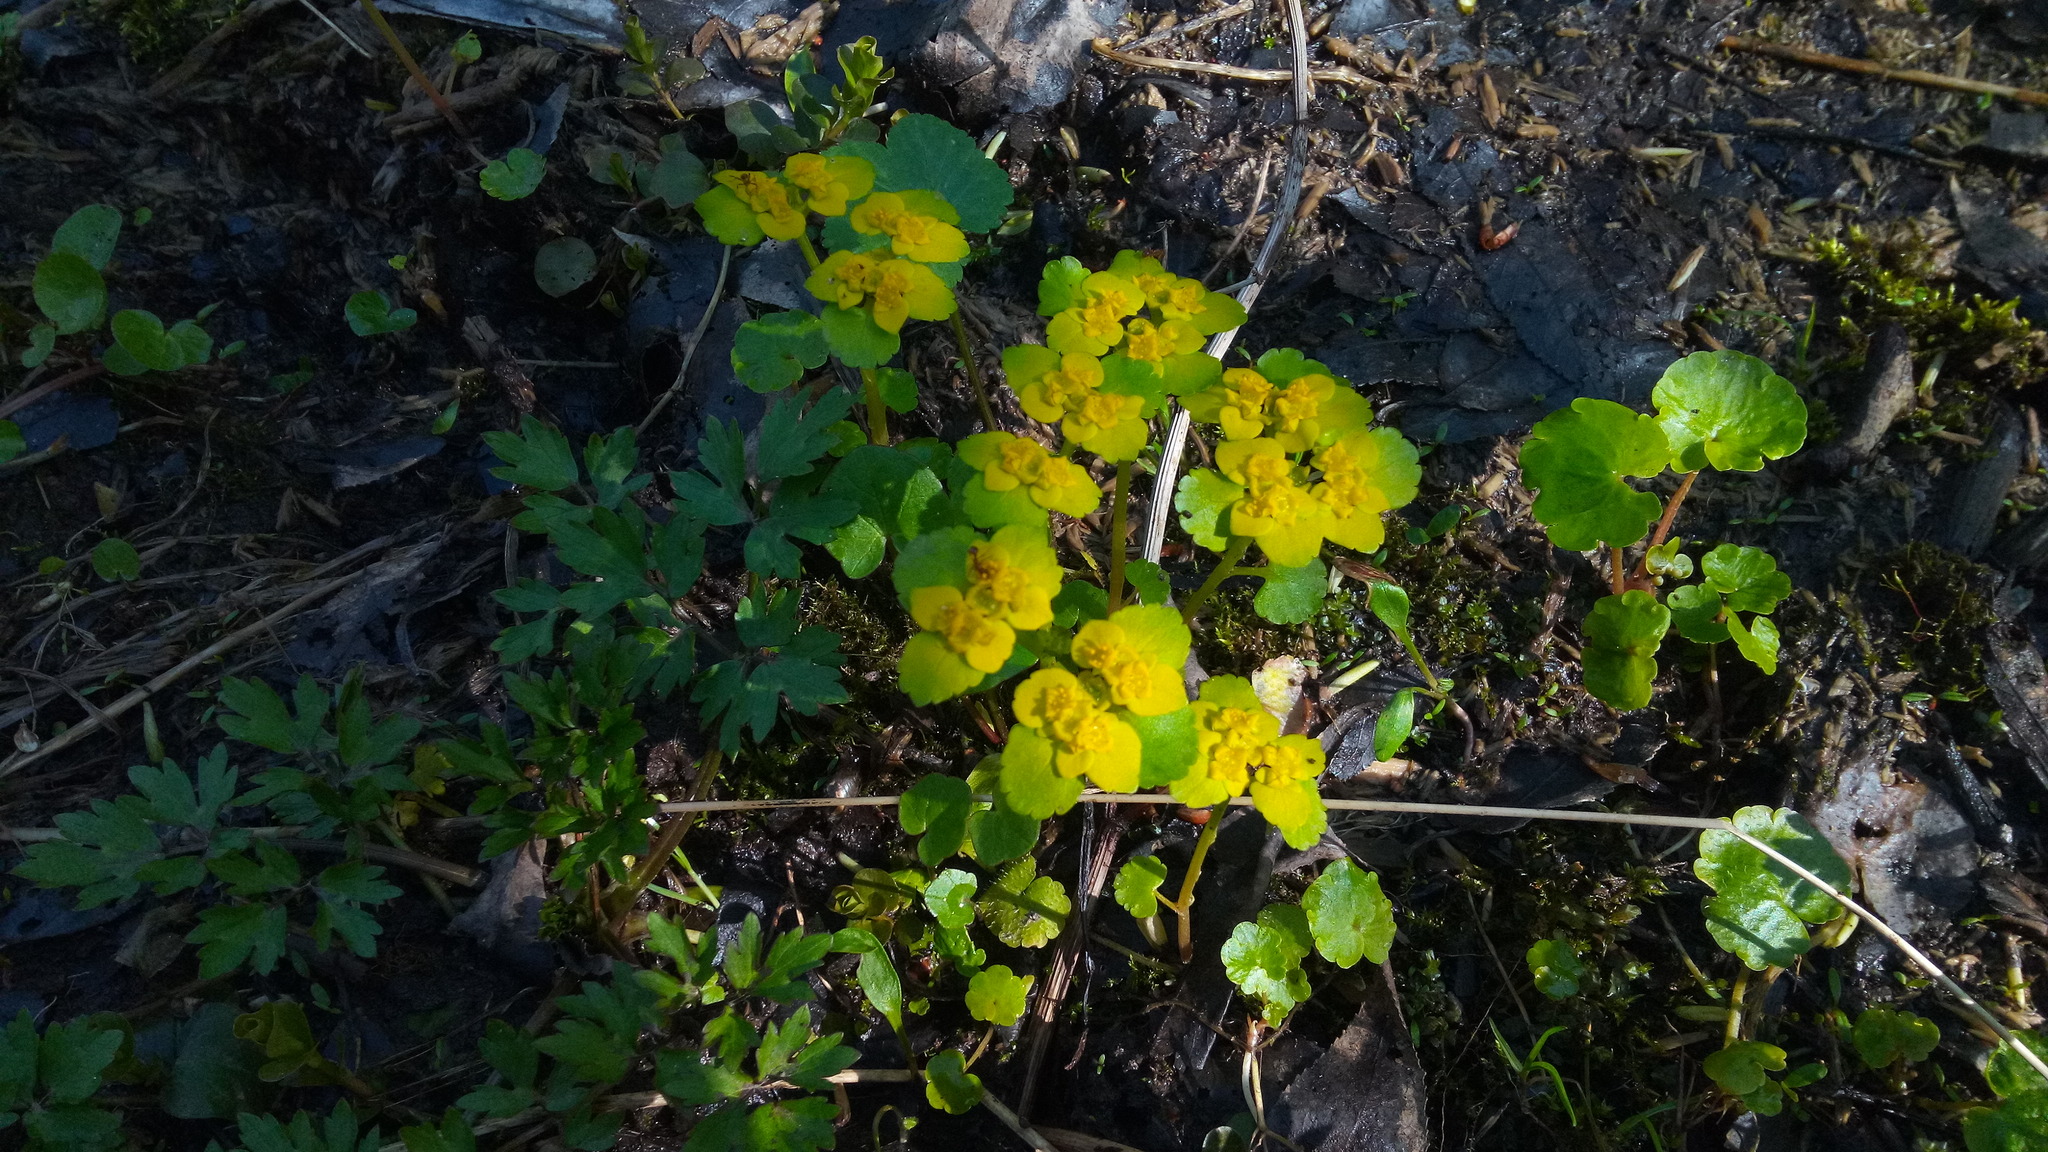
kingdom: Plantae
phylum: Tracheophyta
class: Magnoliopsida
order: Saxifragales
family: Saxifragaceae
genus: Chrysosplenium
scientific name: Chrysosplenium alternifolium
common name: Alternate-leaved golden-saxifrage
